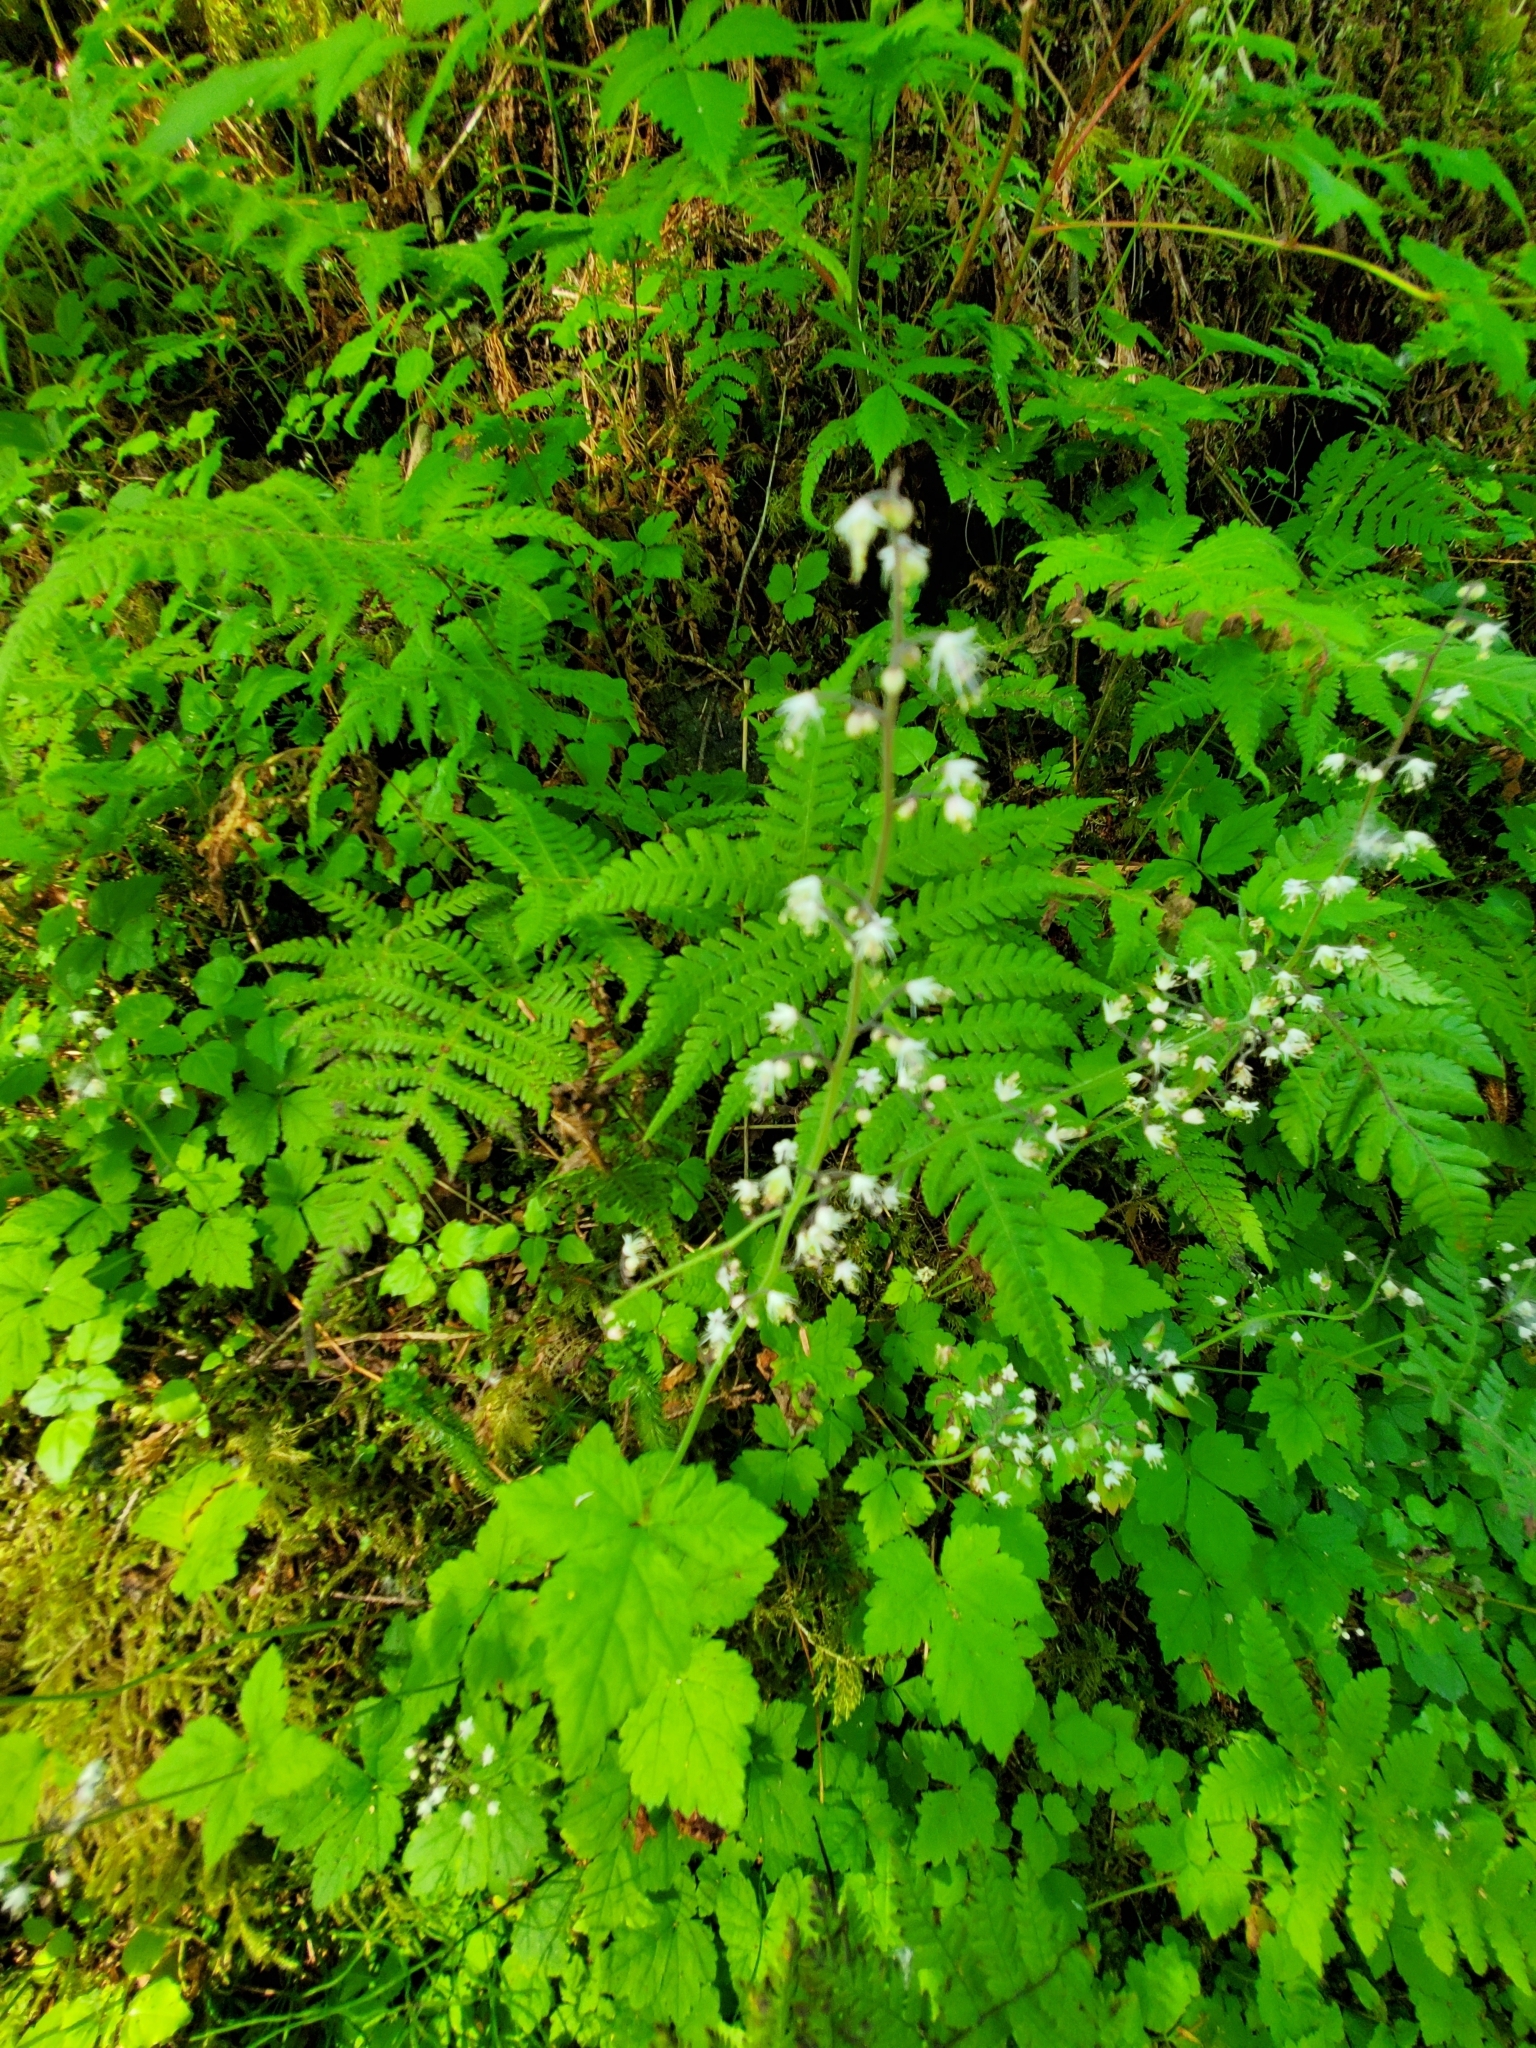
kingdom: Plantae
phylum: Tracheophyta
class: Magnoliopsida
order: Saxifragales
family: Saxifragaceae
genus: Tiarella
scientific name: Tiarella trifoliata
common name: Sugar-scoop
